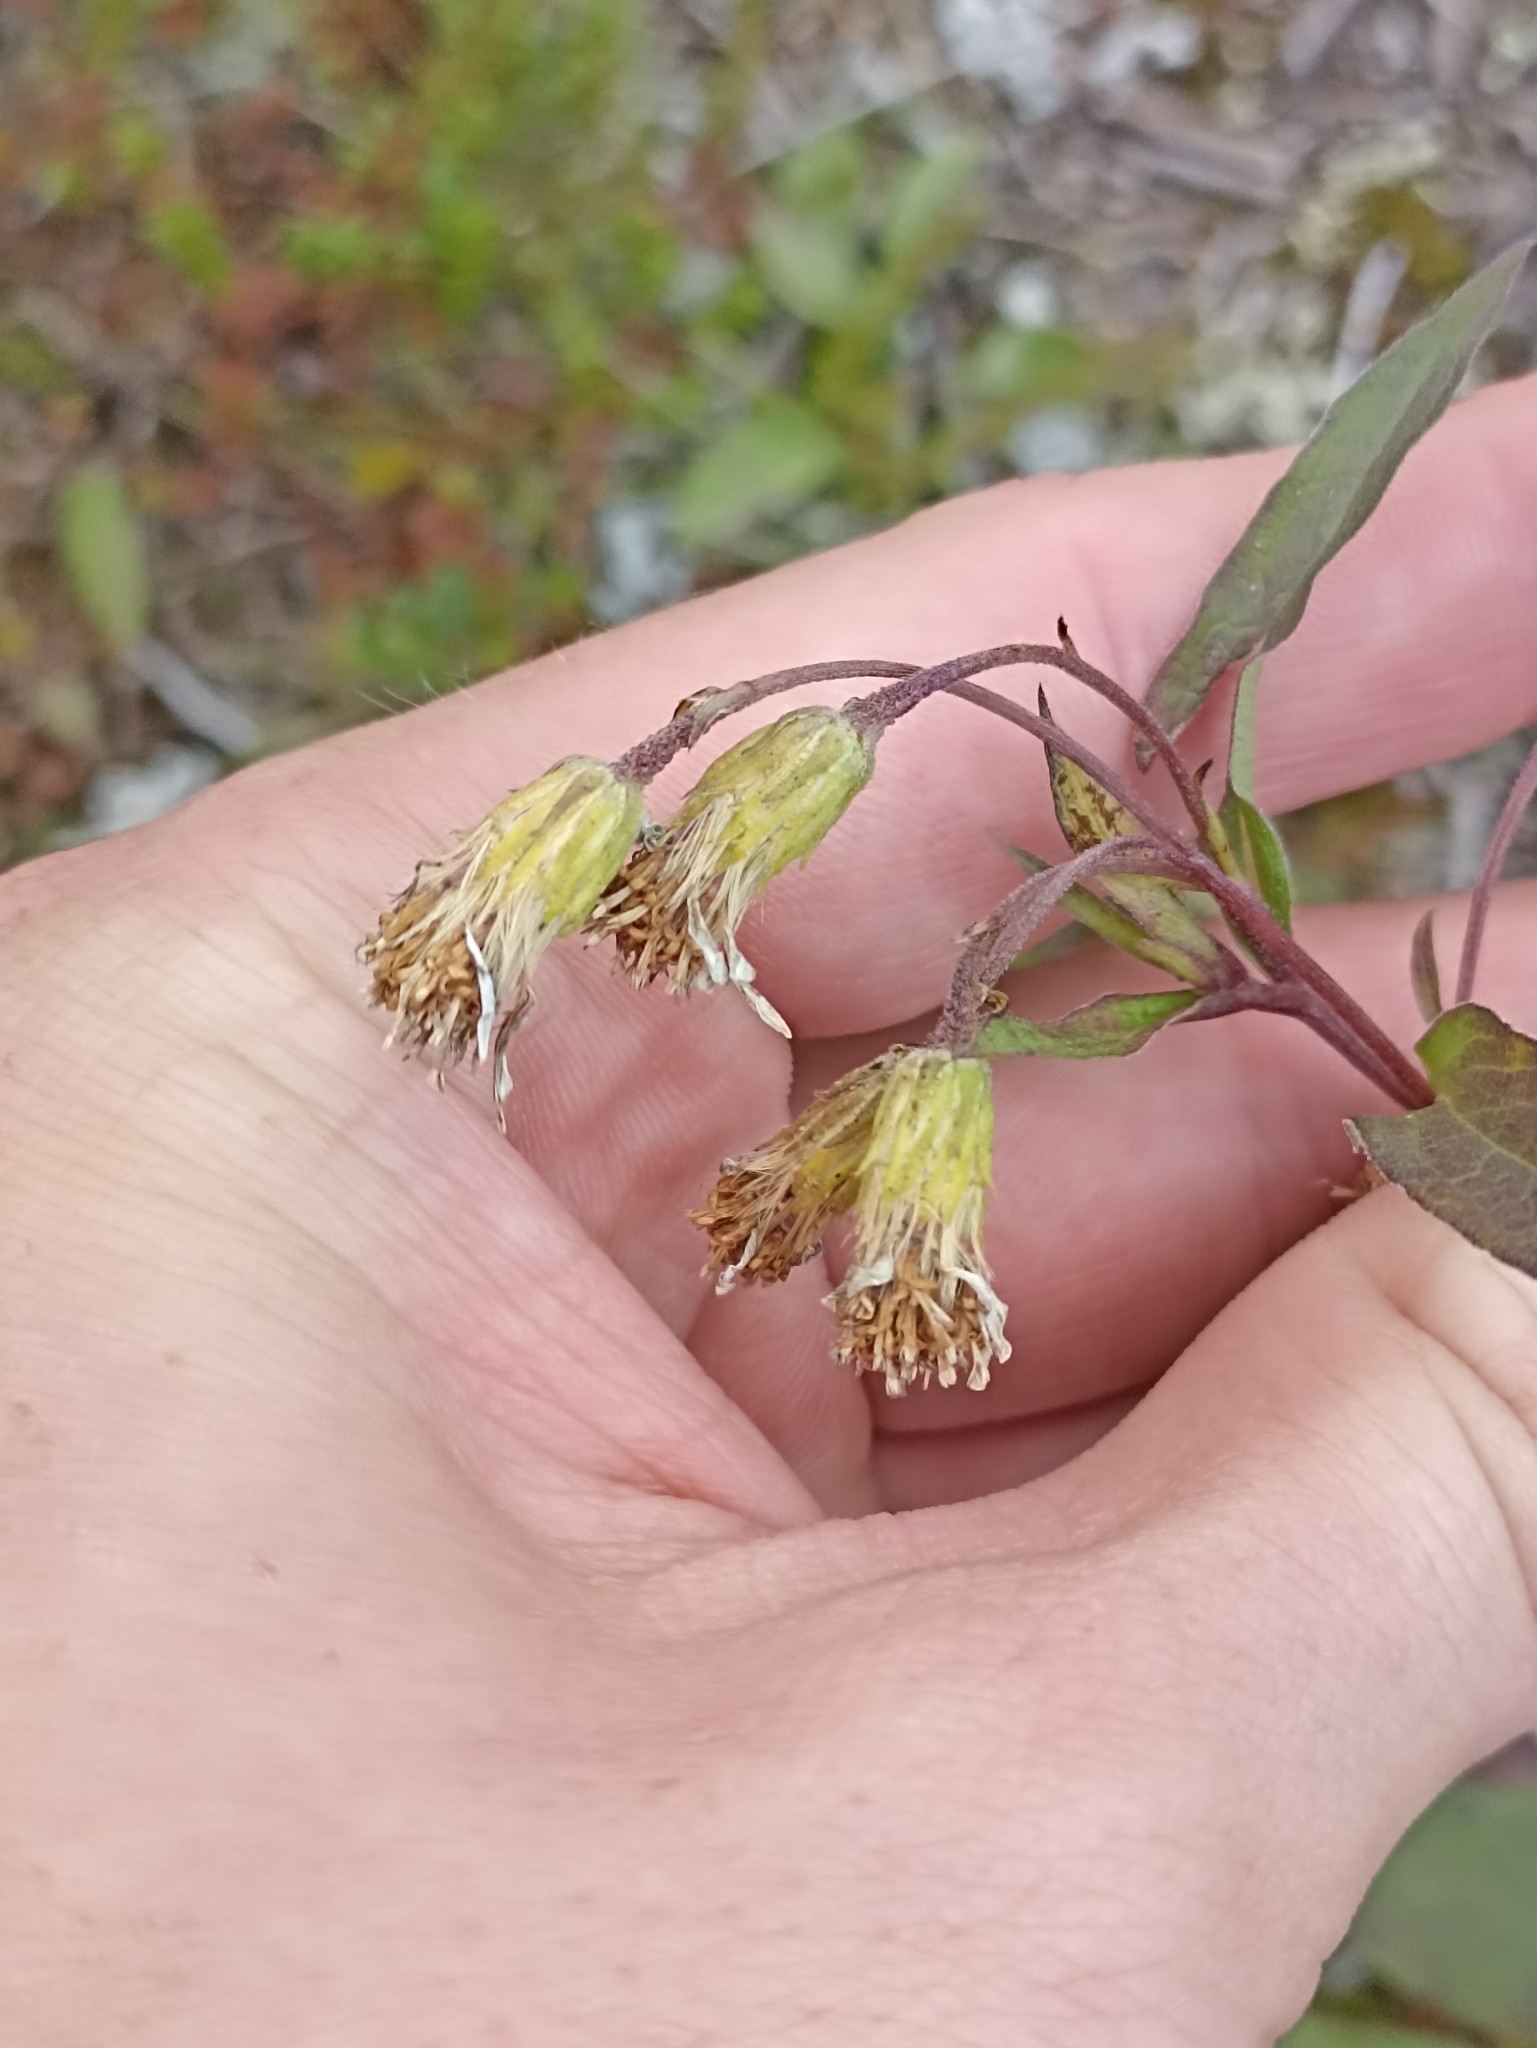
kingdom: Plantae
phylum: Tracheophyta
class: Magnoliopsida
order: Asterales
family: Asteraceae
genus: Solidago
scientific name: Solidago virgaurea
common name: Goldenrod
